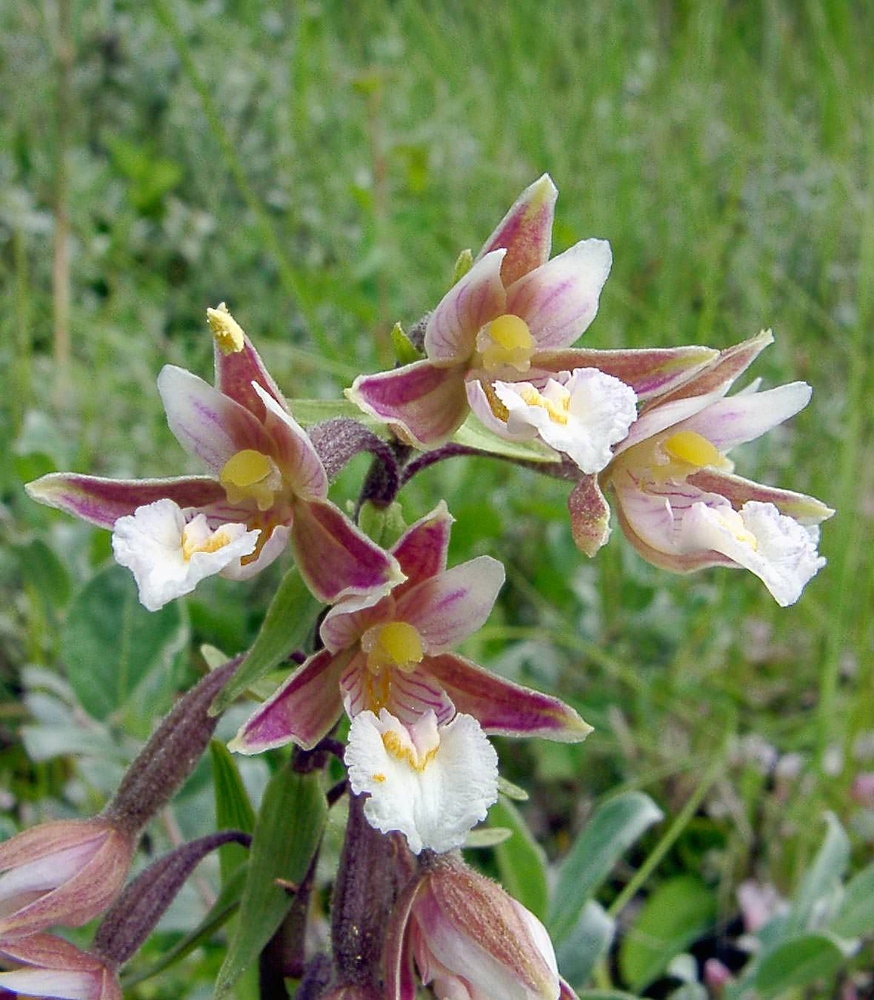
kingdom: Plantae
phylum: Tracheophyta
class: Liliopsida
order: Asparagales
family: Orchidaceae
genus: Epipactis
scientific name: Epipactis palustris
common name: Marsh helleborine
